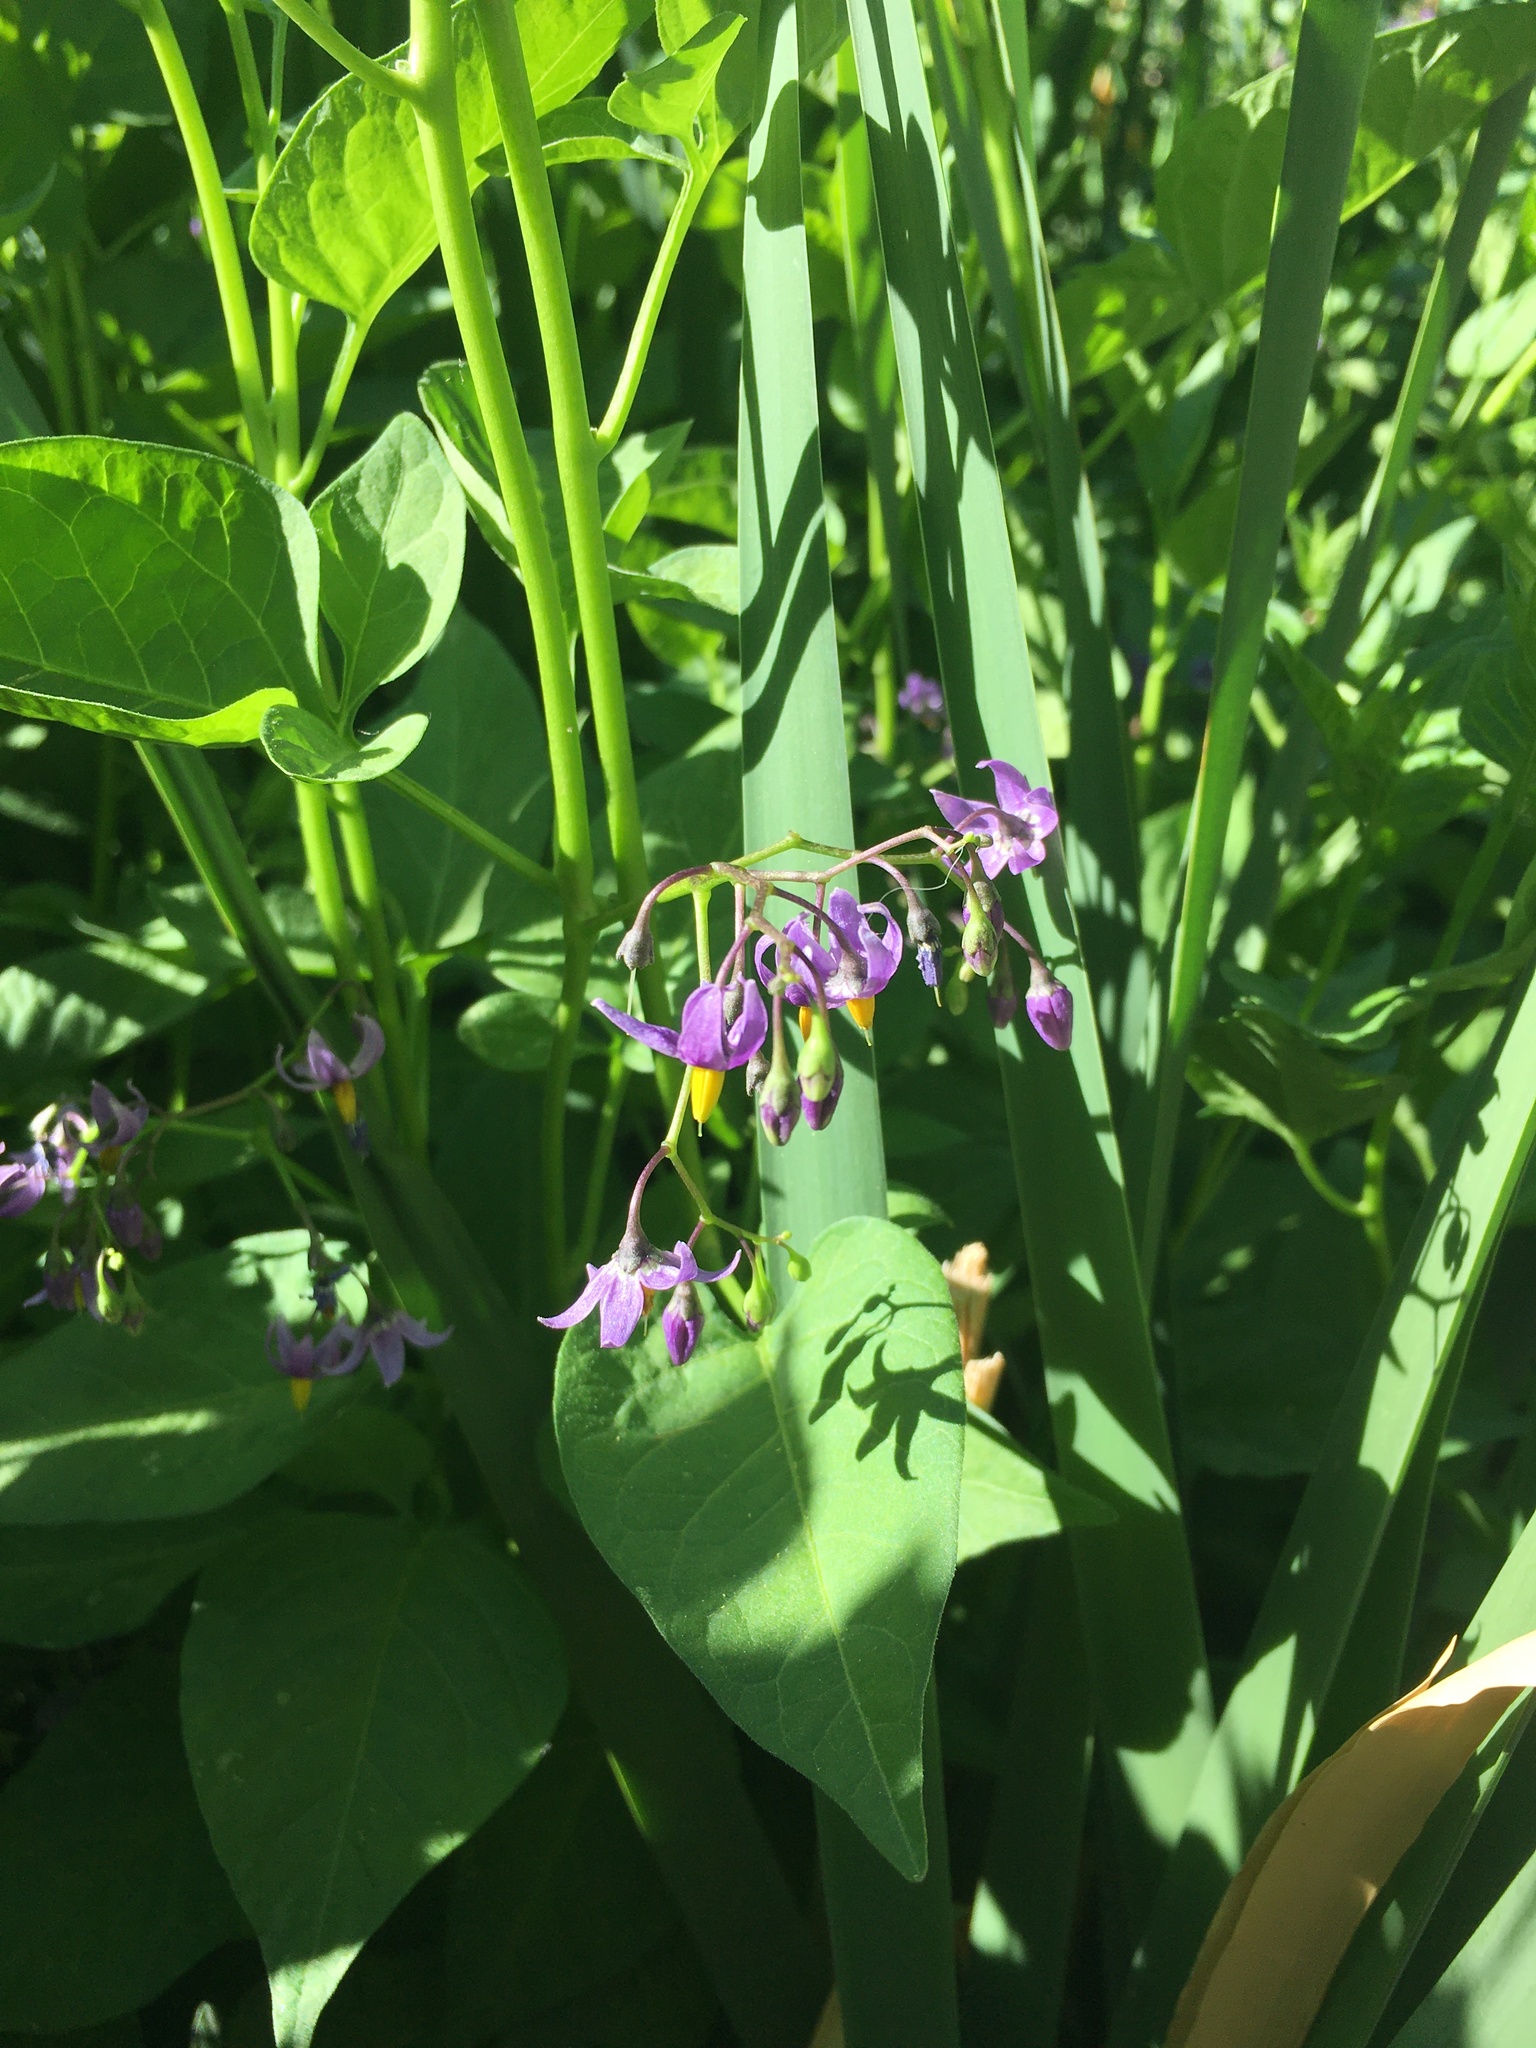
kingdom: Plantae
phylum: Tracheophyta
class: Magnoliopsida
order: Solanales
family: Solanaceae
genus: Solanum
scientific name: Solanum dulcamara
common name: Climbing nightshade
